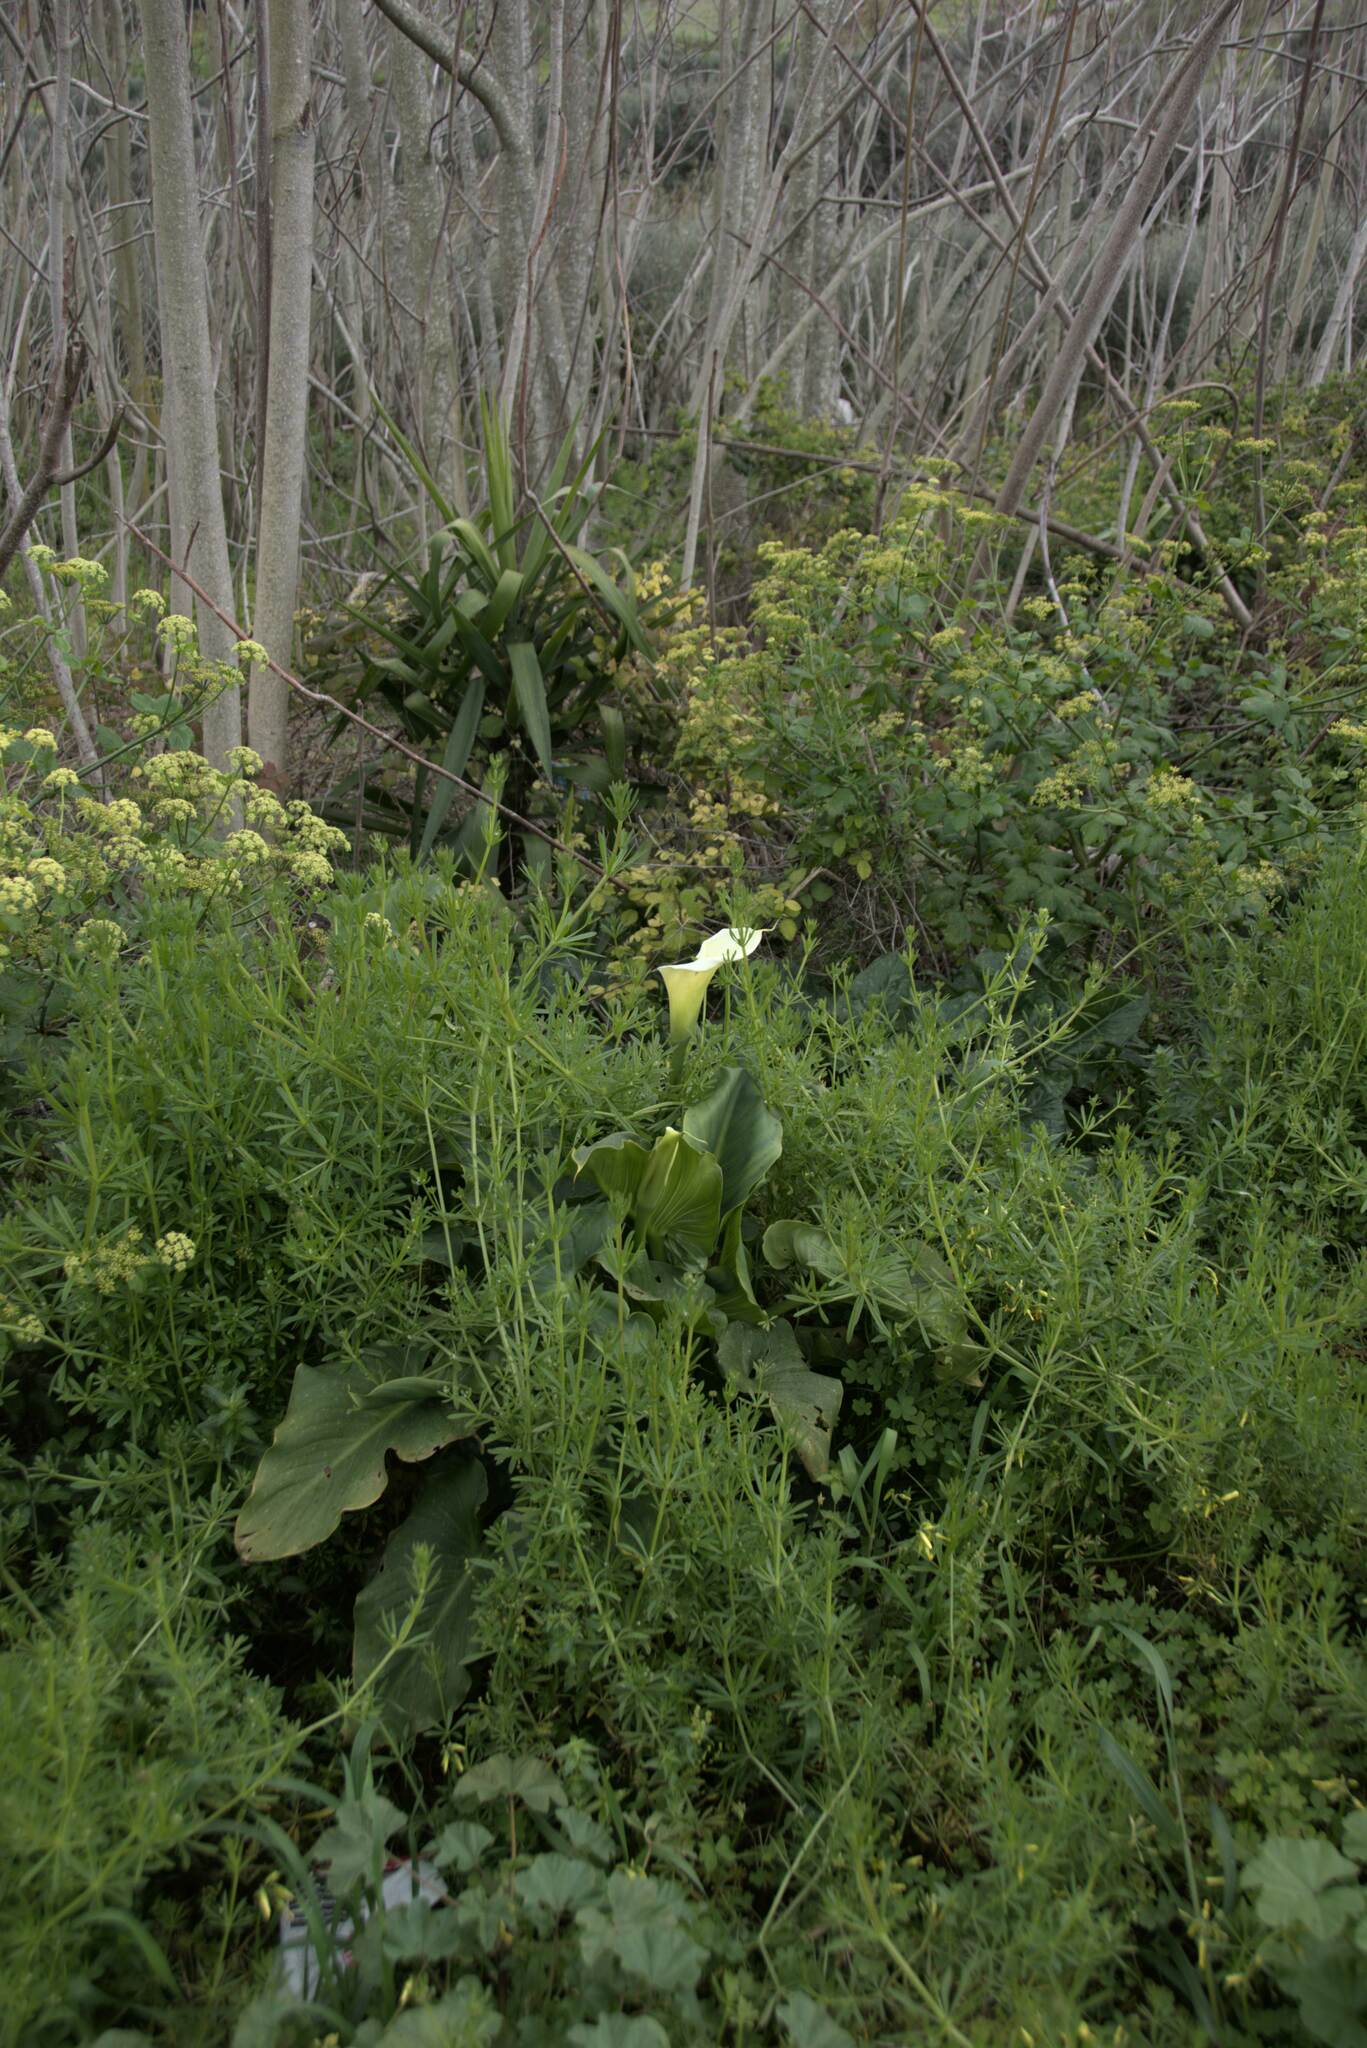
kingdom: Plantae
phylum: Tracheophyta
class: Liliopsida
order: Alismatales
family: Araceae
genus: Zantedeschia
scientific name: Zantedeschia aethiopica
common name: Altar-lily
